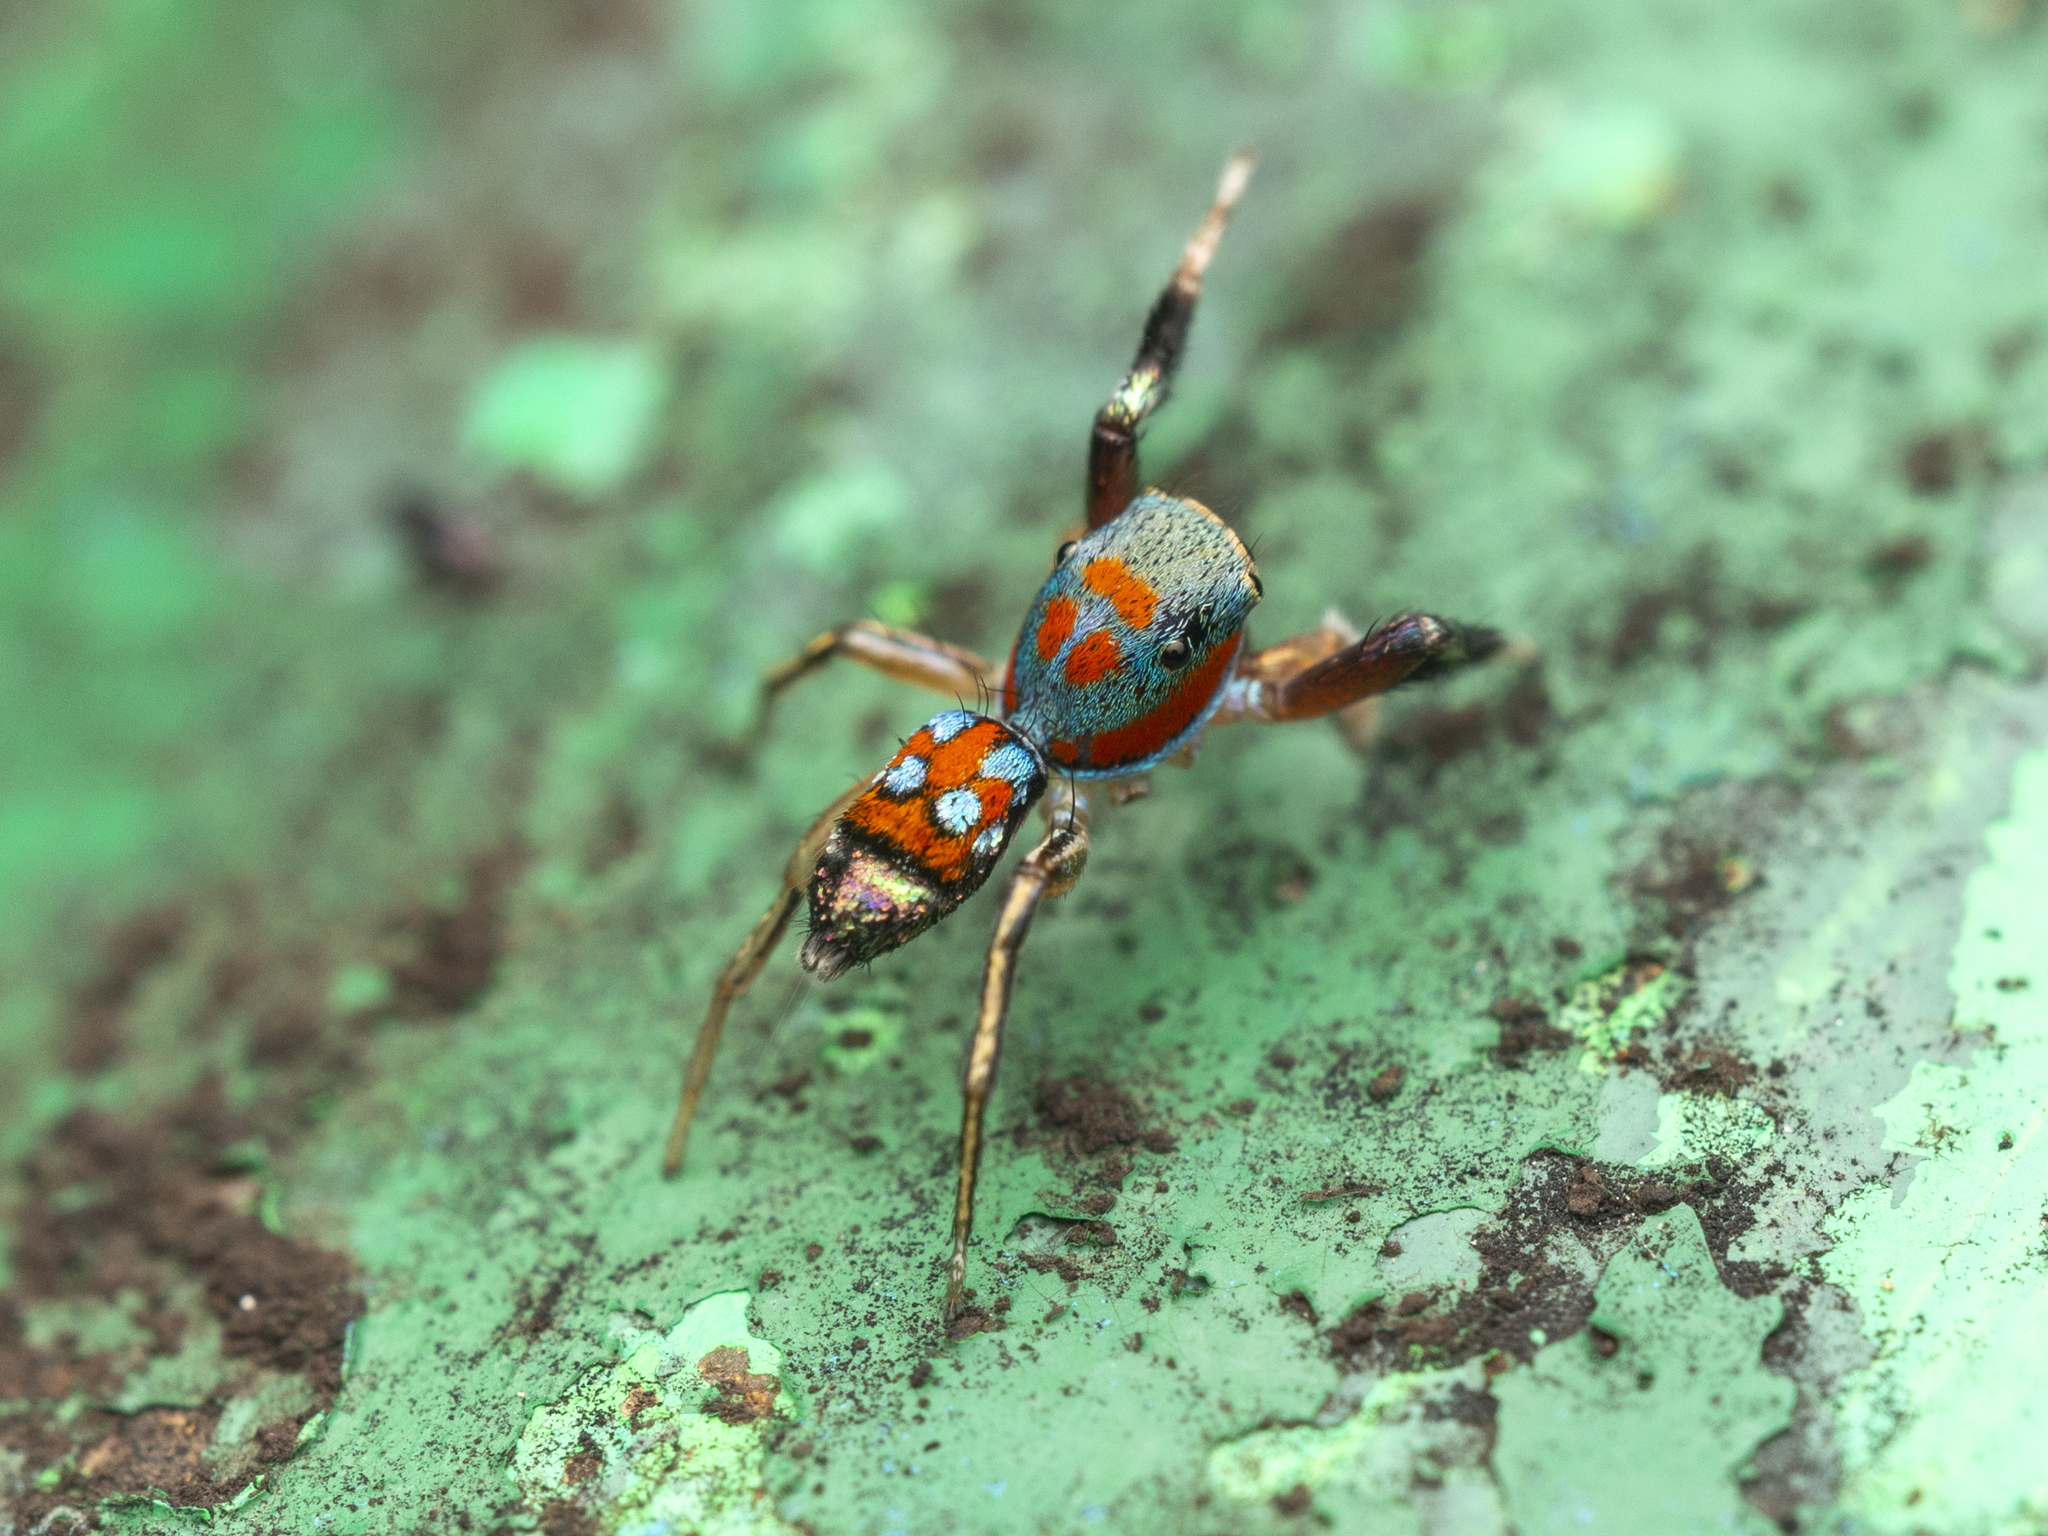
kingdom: Animalia
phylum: Arthropoda
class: Arachnida
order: Araneae
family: Salticidae
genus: Siler
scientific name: Siler collingwoodi
